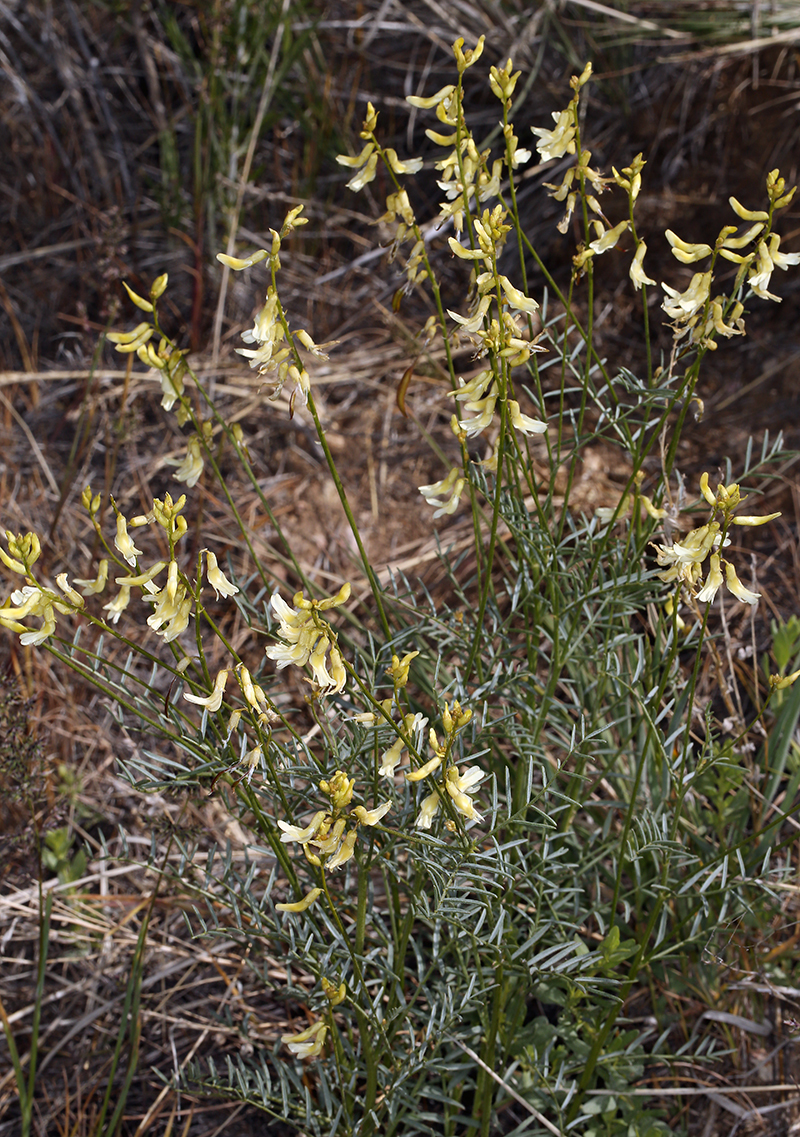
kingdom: Plantae
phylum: Tracheophyta
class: Magnoliopsida
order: Fabales
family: Fabaceae
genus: Astragalus
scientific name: Astragalus filipes
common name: Basalt milk-vetch
